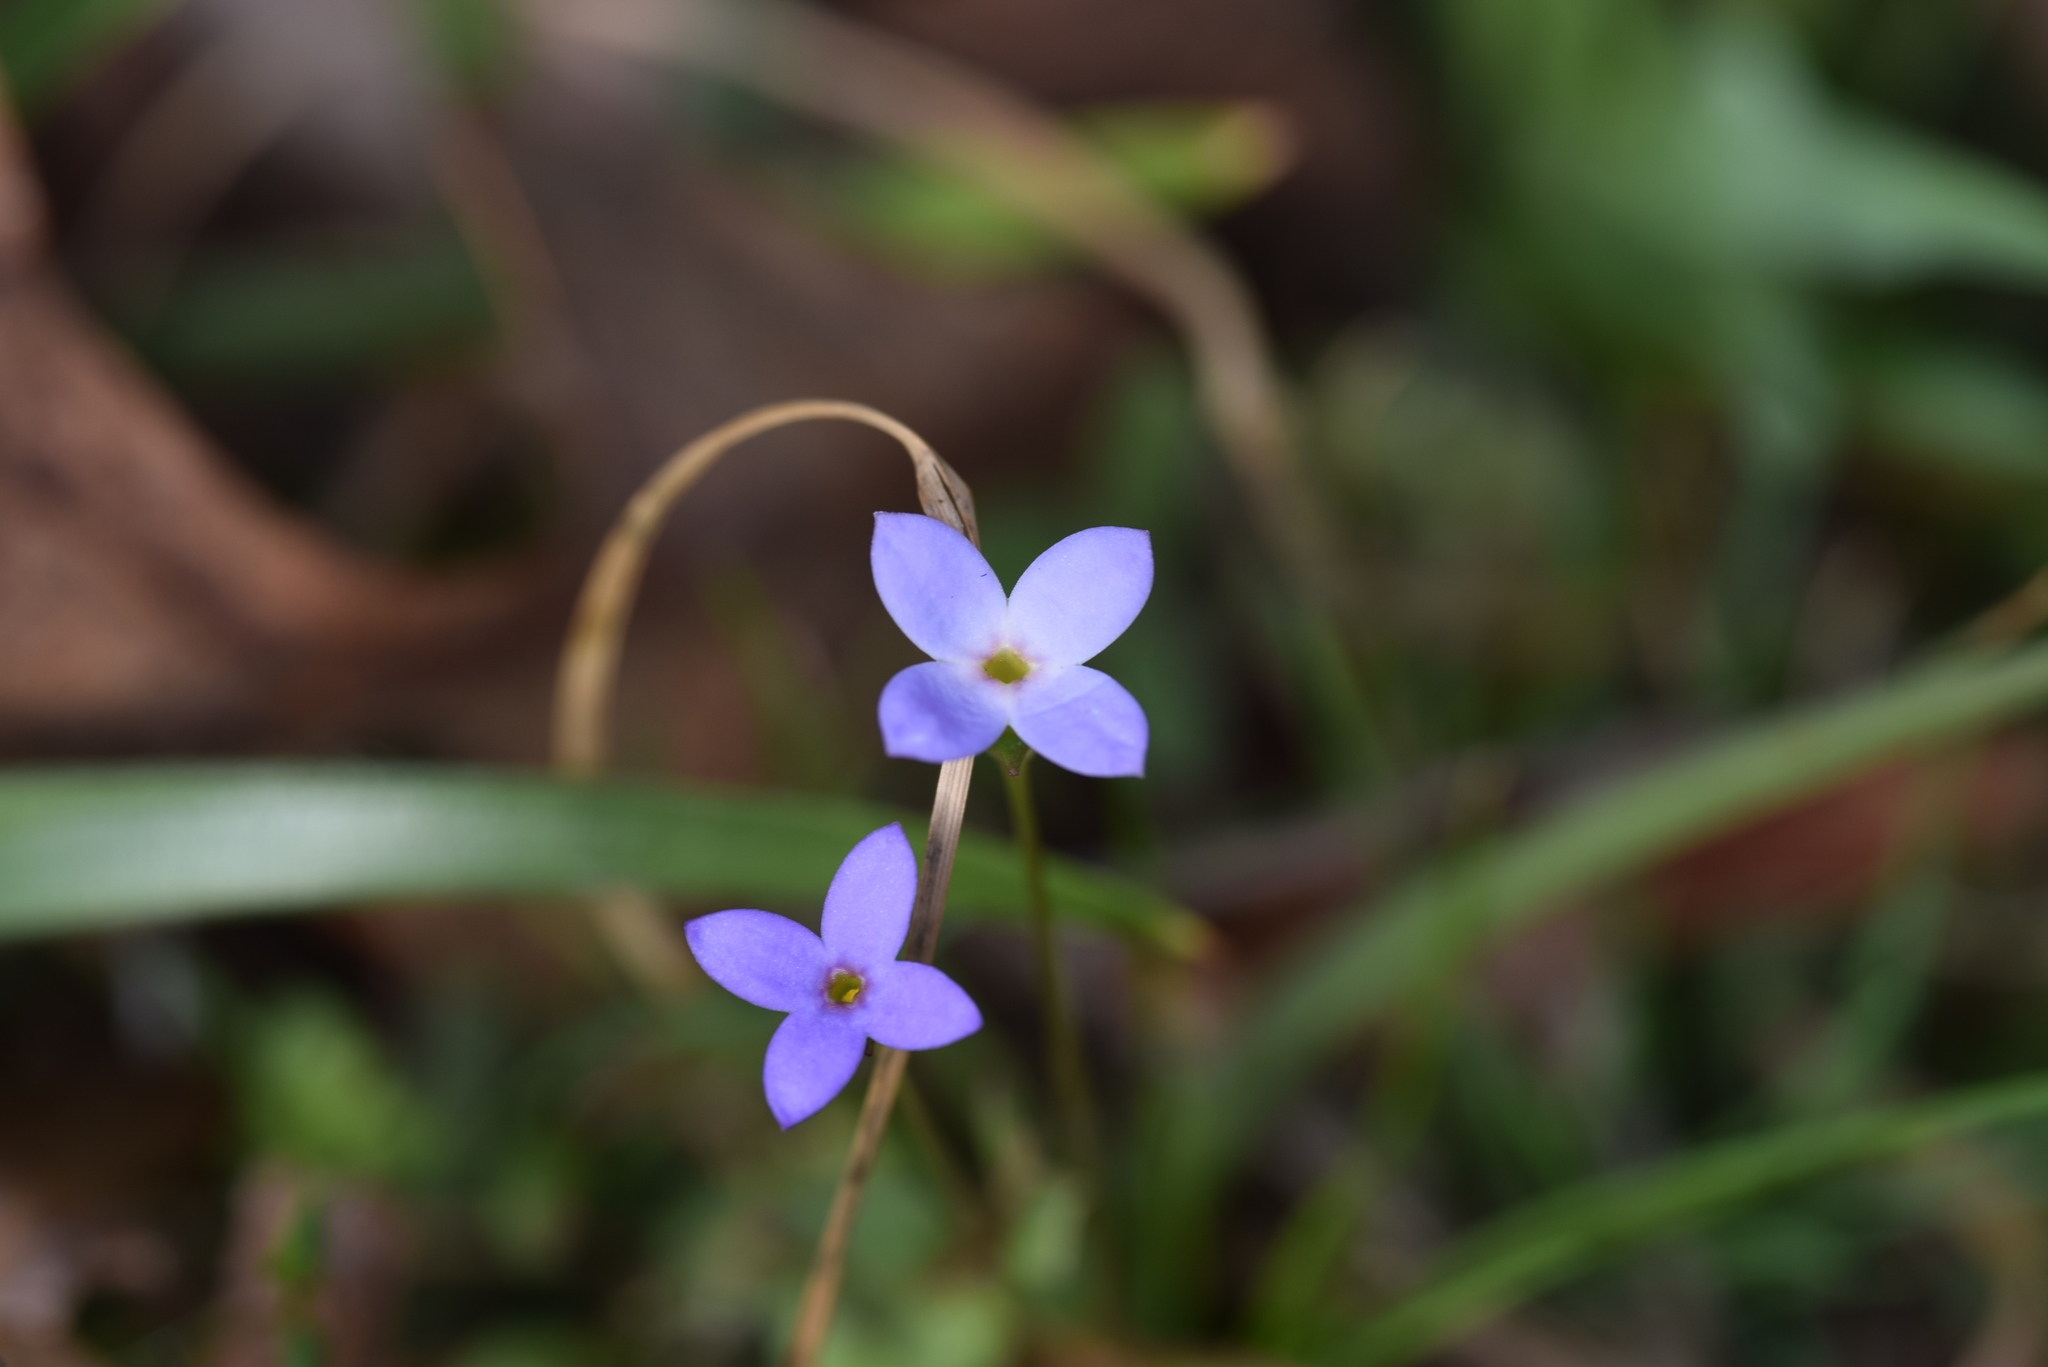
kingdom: Plantae
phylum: Tracheophyta
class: Magnoliopsida
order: Gentianales
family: Rubiaceae
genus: Houstonia
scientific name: Houstonia pusilla
